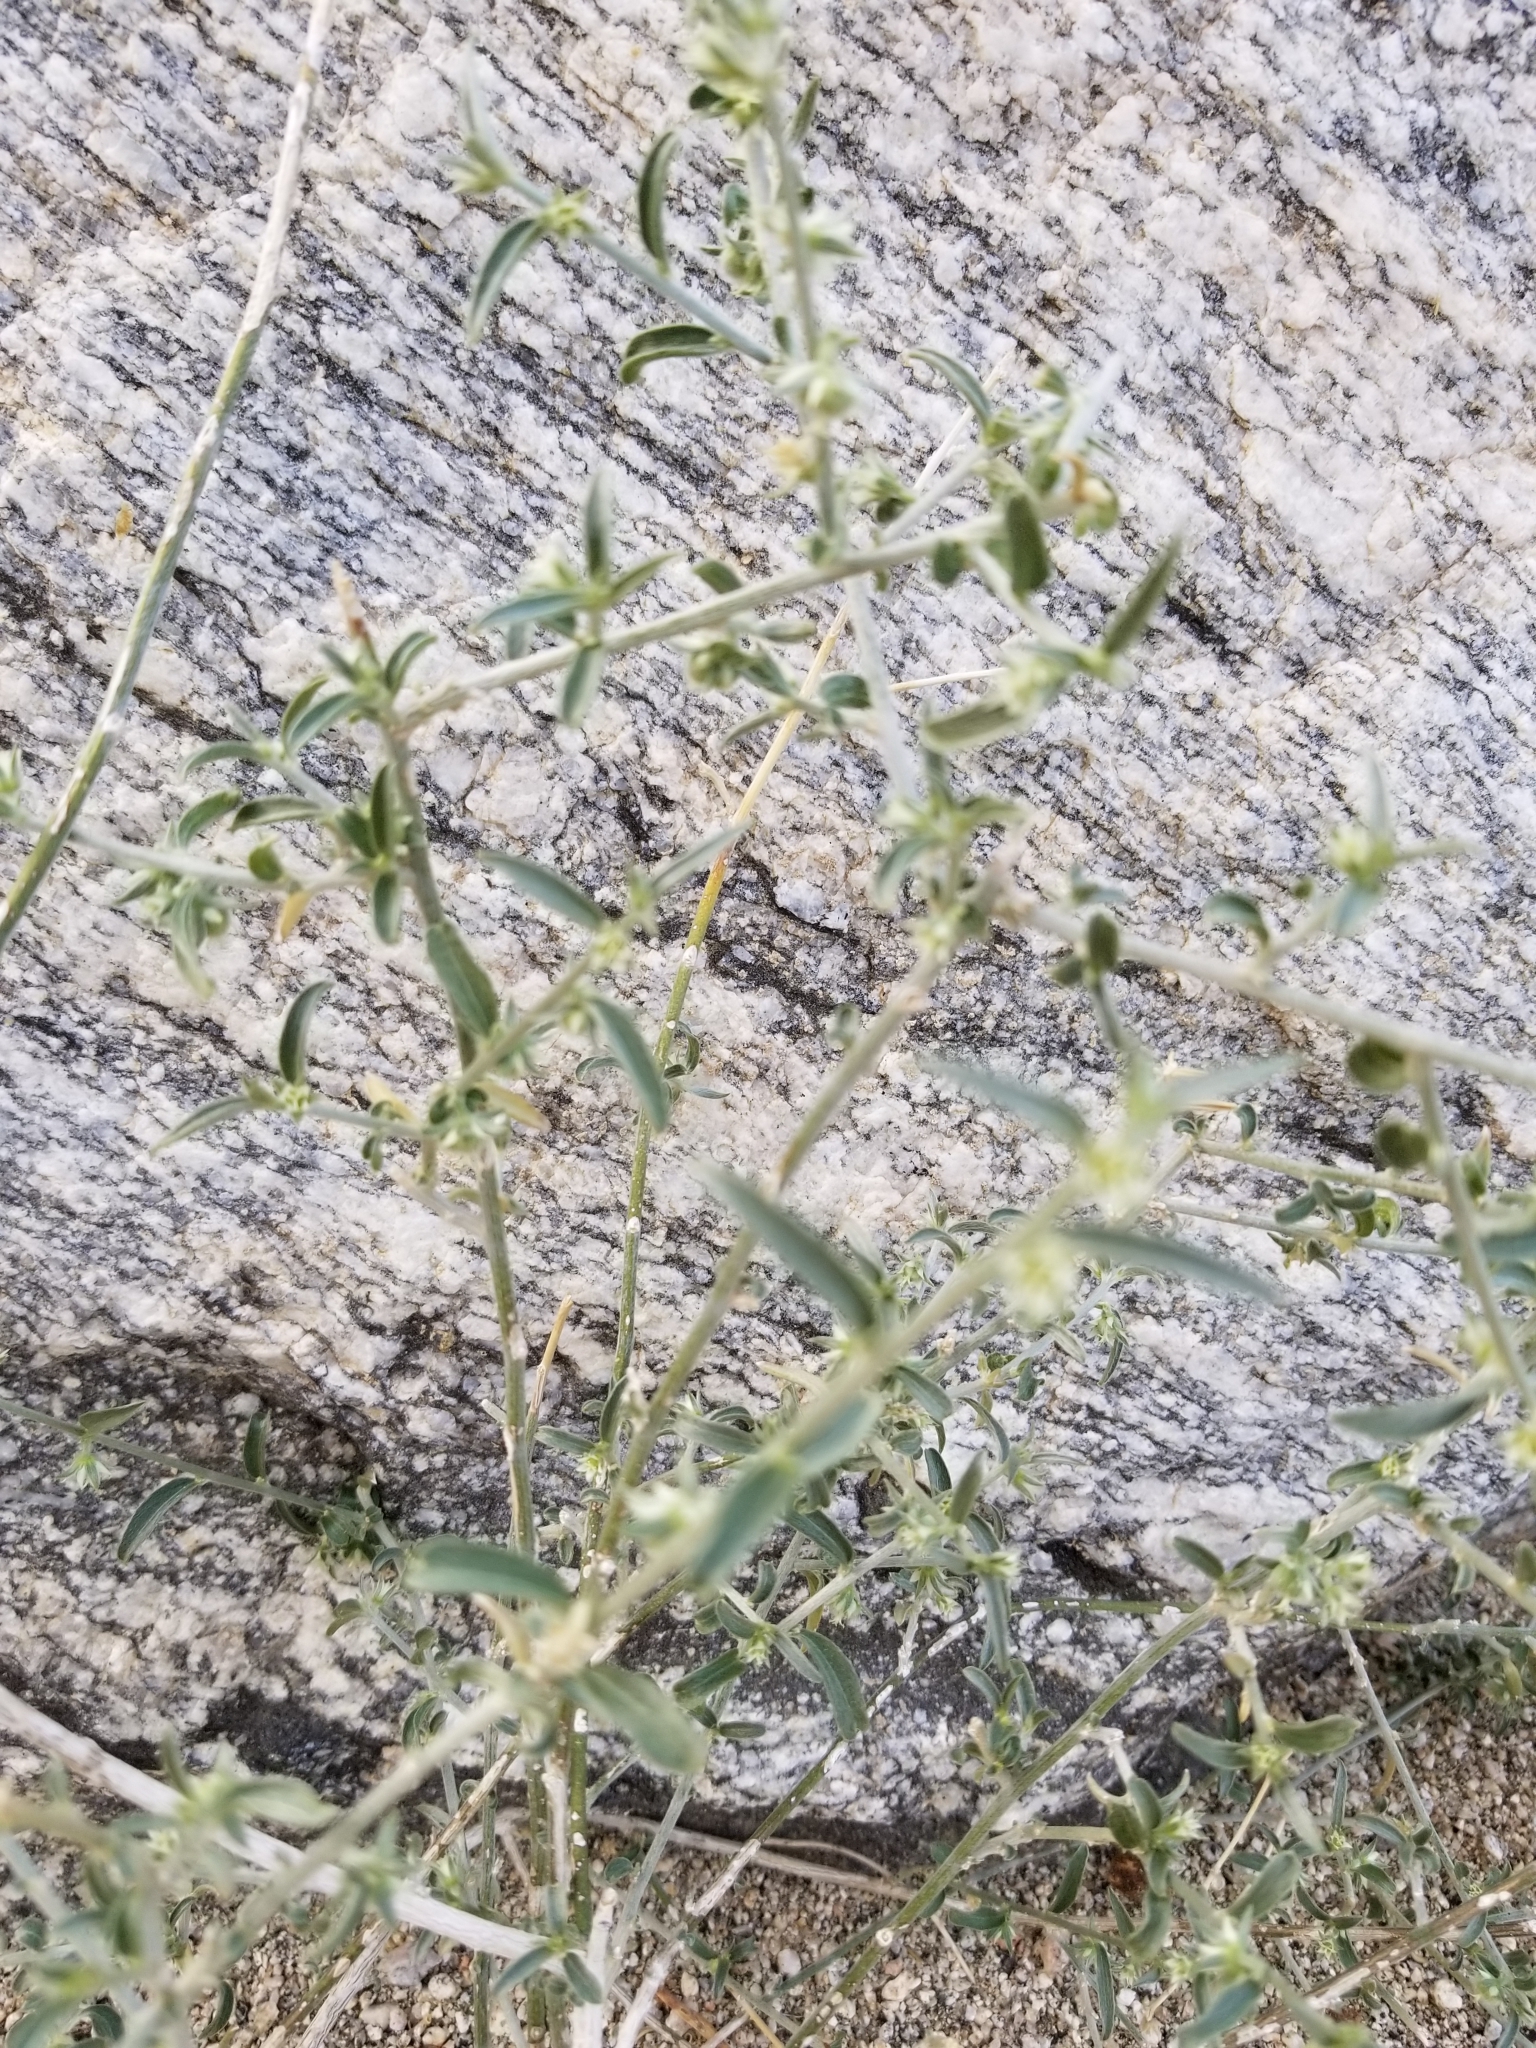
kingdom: Plantae
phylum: Tracheophyta
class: Magnoliopsida
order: Malpighiales
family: Euphorbiaceae
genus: Ditaxis
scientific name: Ditaxis lanceolata
